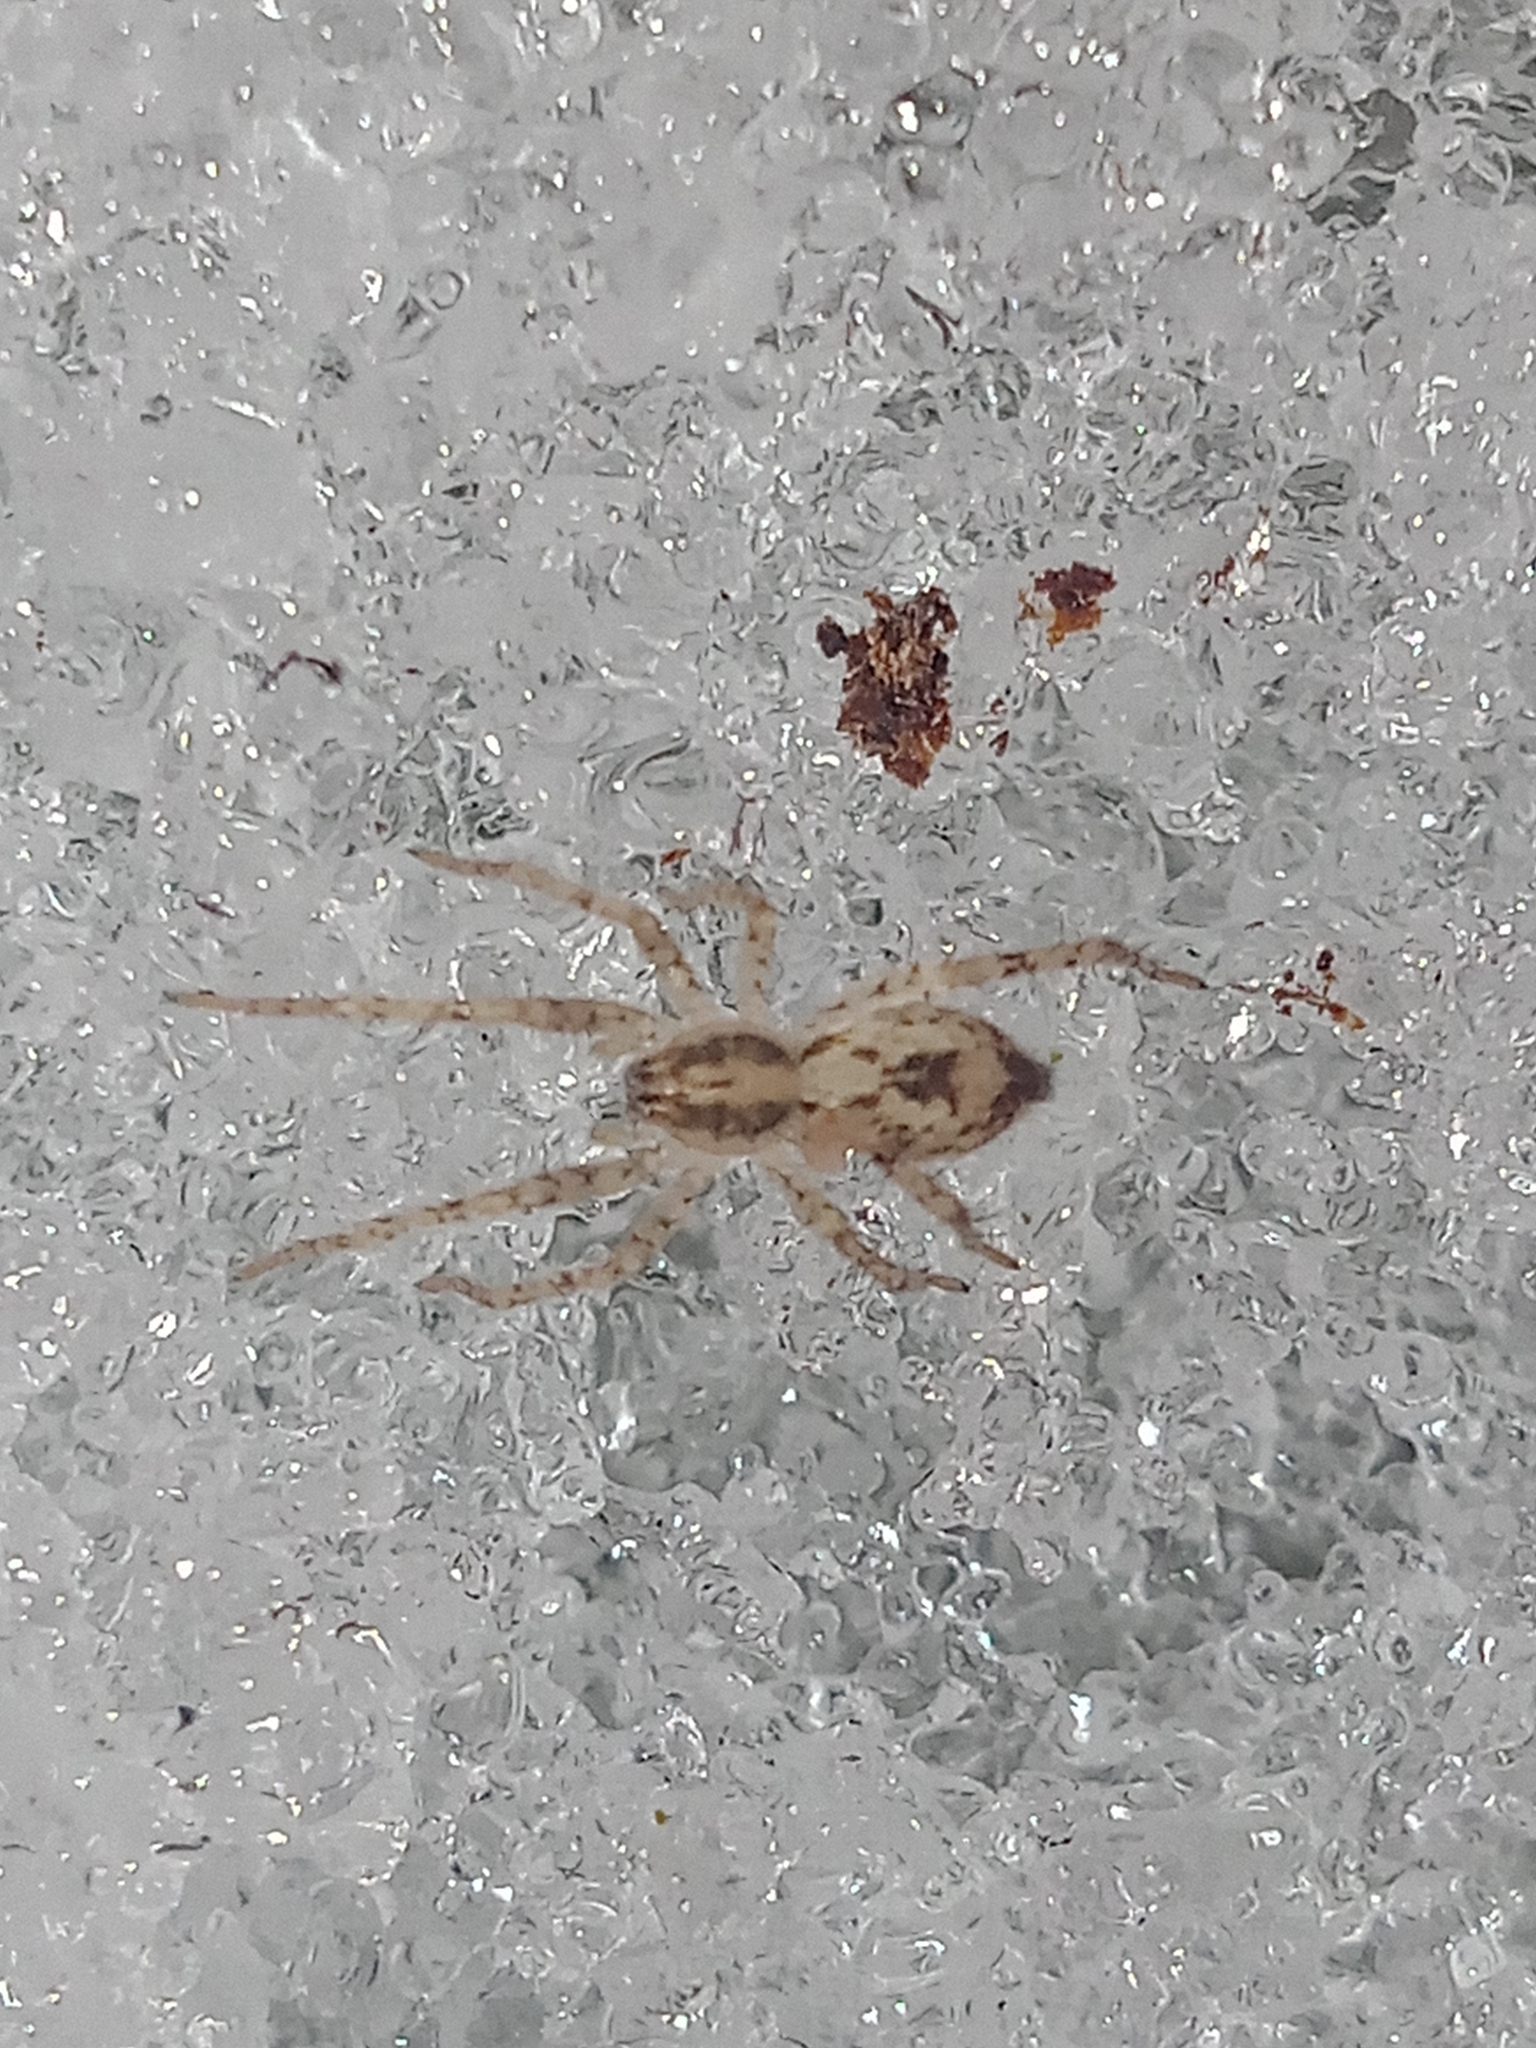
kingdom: Animalia
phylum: Arthropoda
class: Arachnida
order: Araneae
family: Anyphaenidae
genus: Anyphaena
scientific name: Anyphaena accentuata
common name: Buzzing spider
